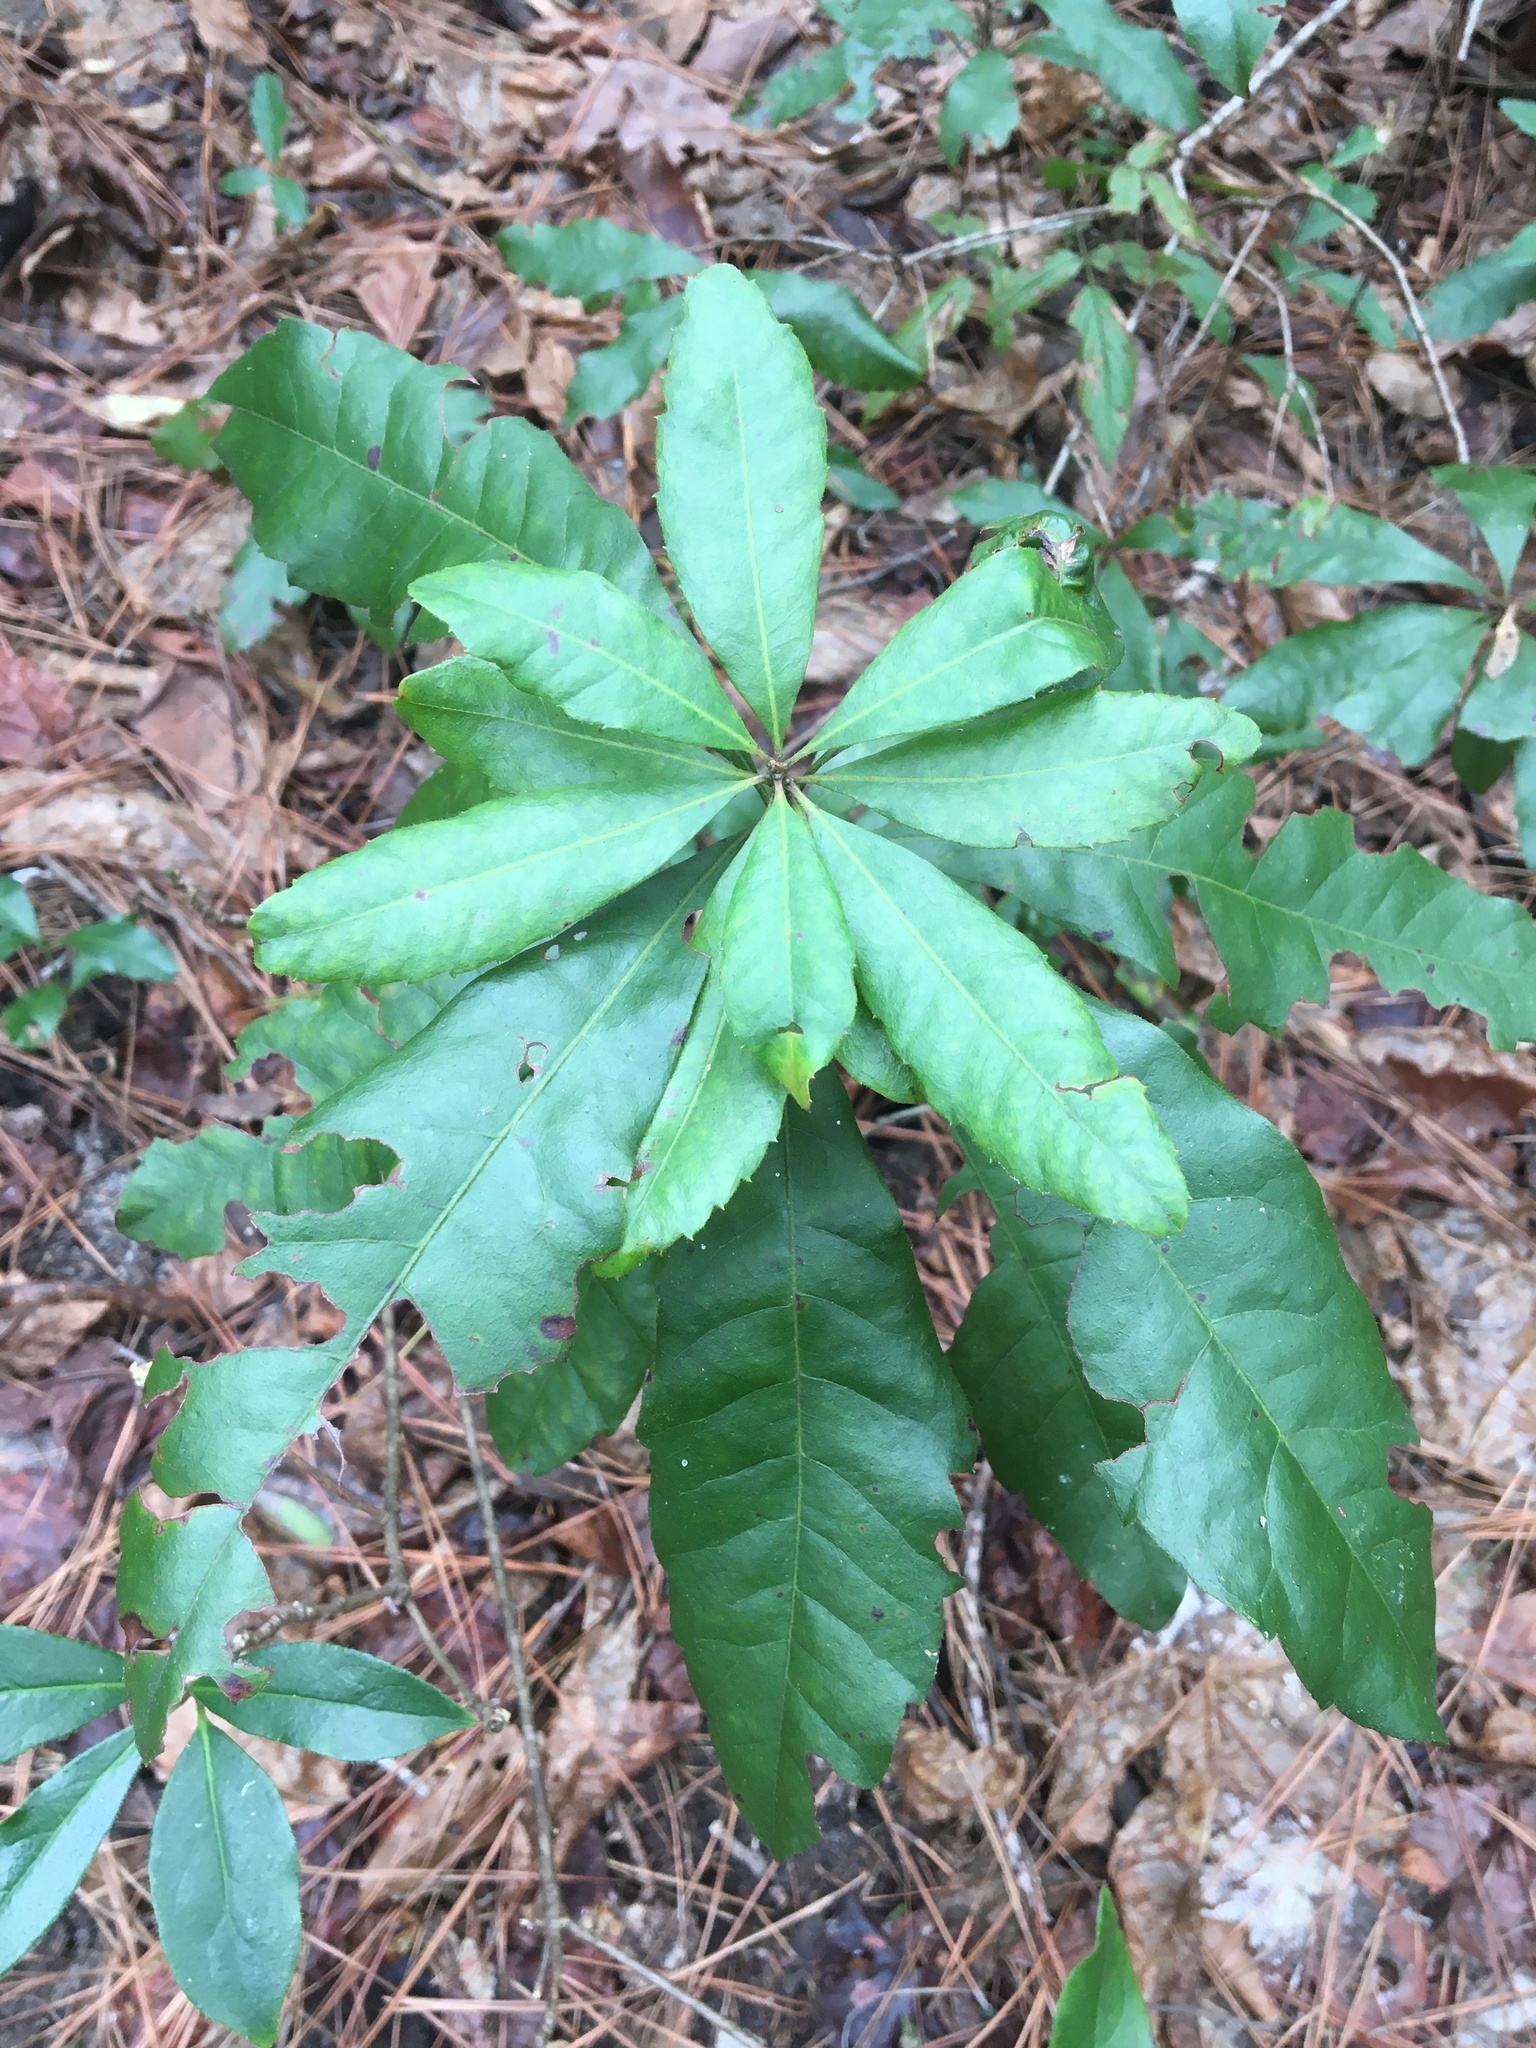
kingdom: Plantae
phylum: Tracheophyta
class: Magnoliopsida
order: Fagales
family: Myricaceae
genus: Morella
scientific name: Morella caroliniensis
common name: Evergreen bayberry
